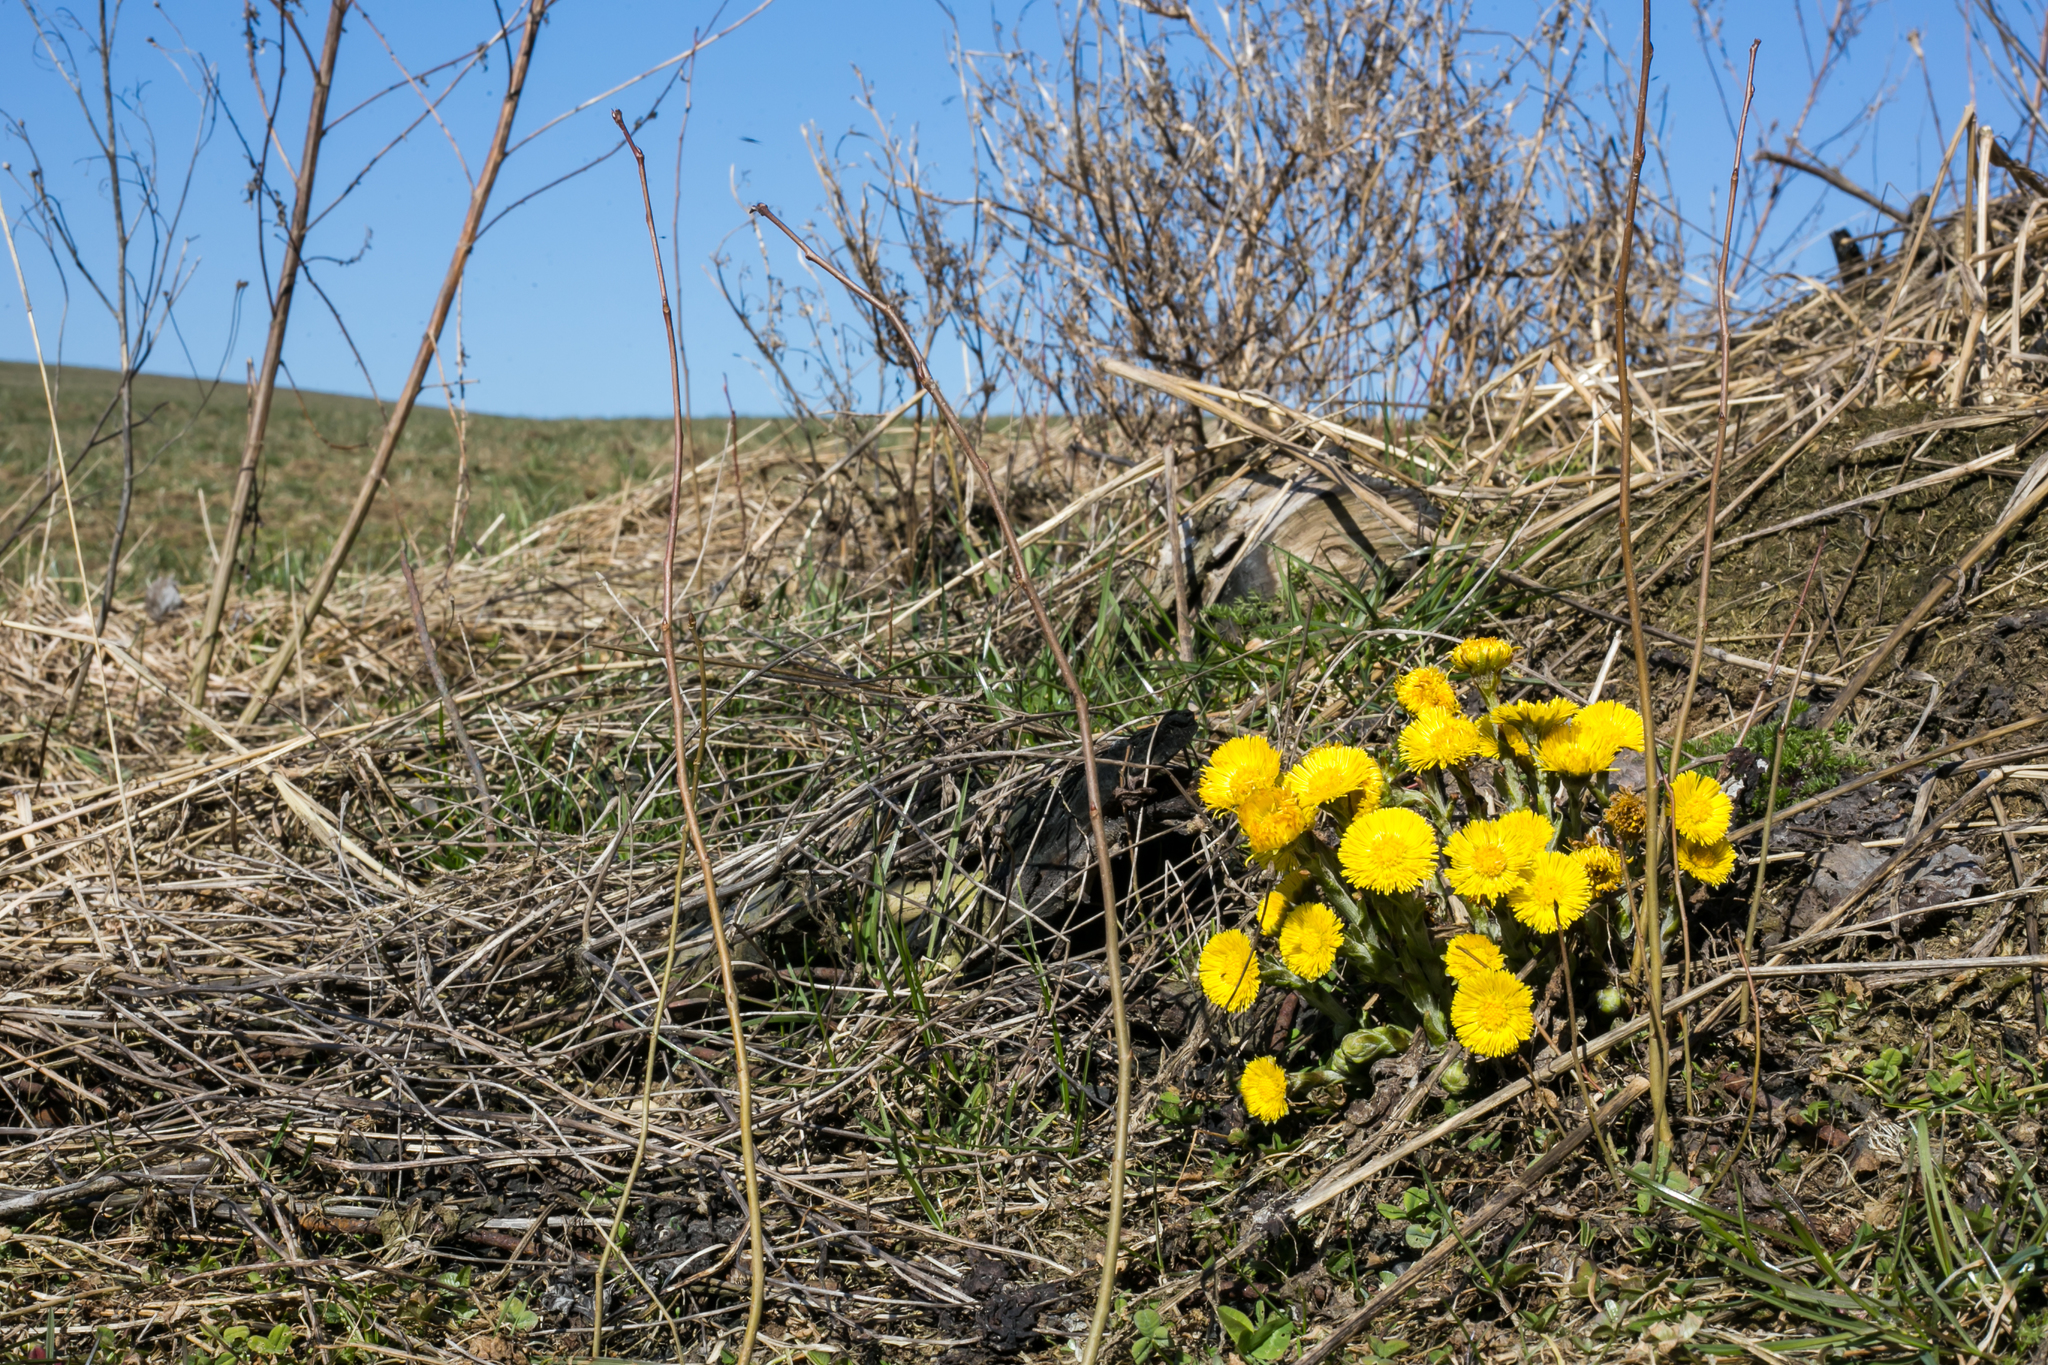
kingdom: Plantae
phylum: Tracheophyta
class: Magnoliopsida
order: Asterales
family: Asteraceae
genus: Tussilago
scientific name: Tussilago farfara
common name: Coltsfoot
